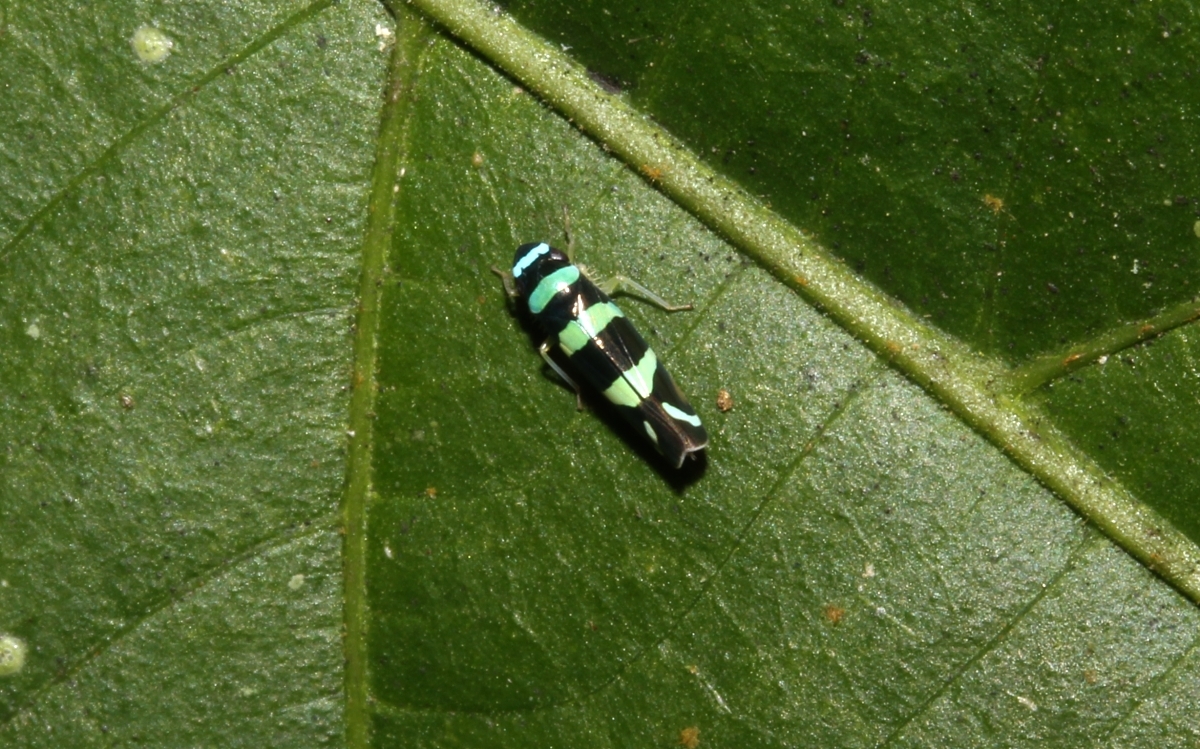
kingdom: Animalia
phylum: Arthropoda
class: Insecta
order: Hemiptera
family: Cicadellidae
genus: Juliaca
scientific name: Juliaca sertigerula
